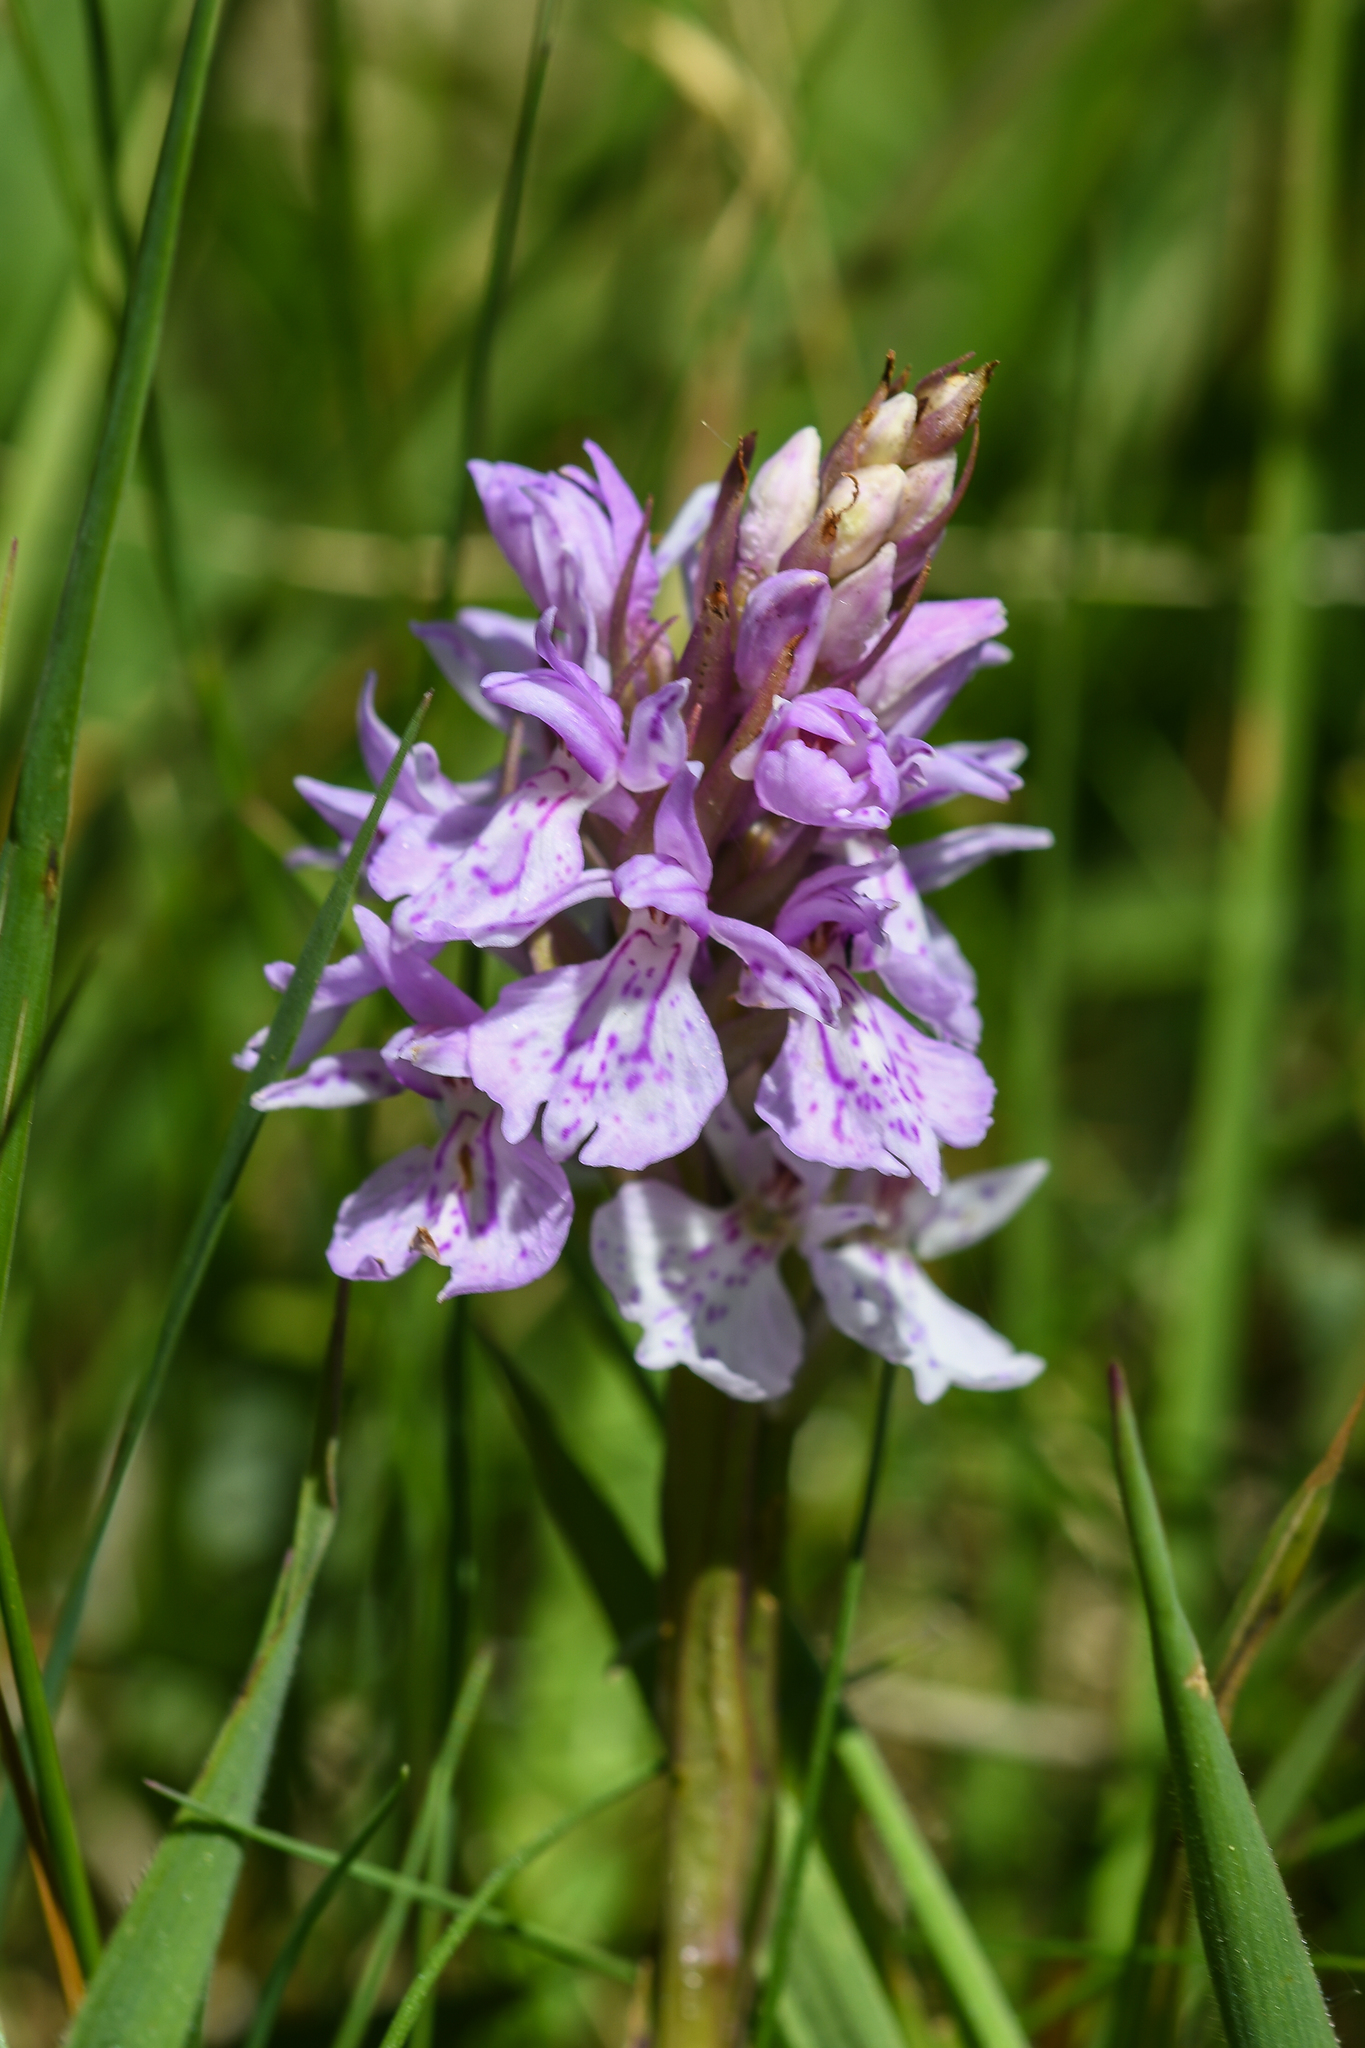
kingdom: Plantae
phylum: Tracheophyta
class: Liliopsida
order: Asparagales
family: Orchidaceae
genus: Dactylorhiza
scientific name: Dactylorhiza maculata
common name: Heath spotted-orchid
